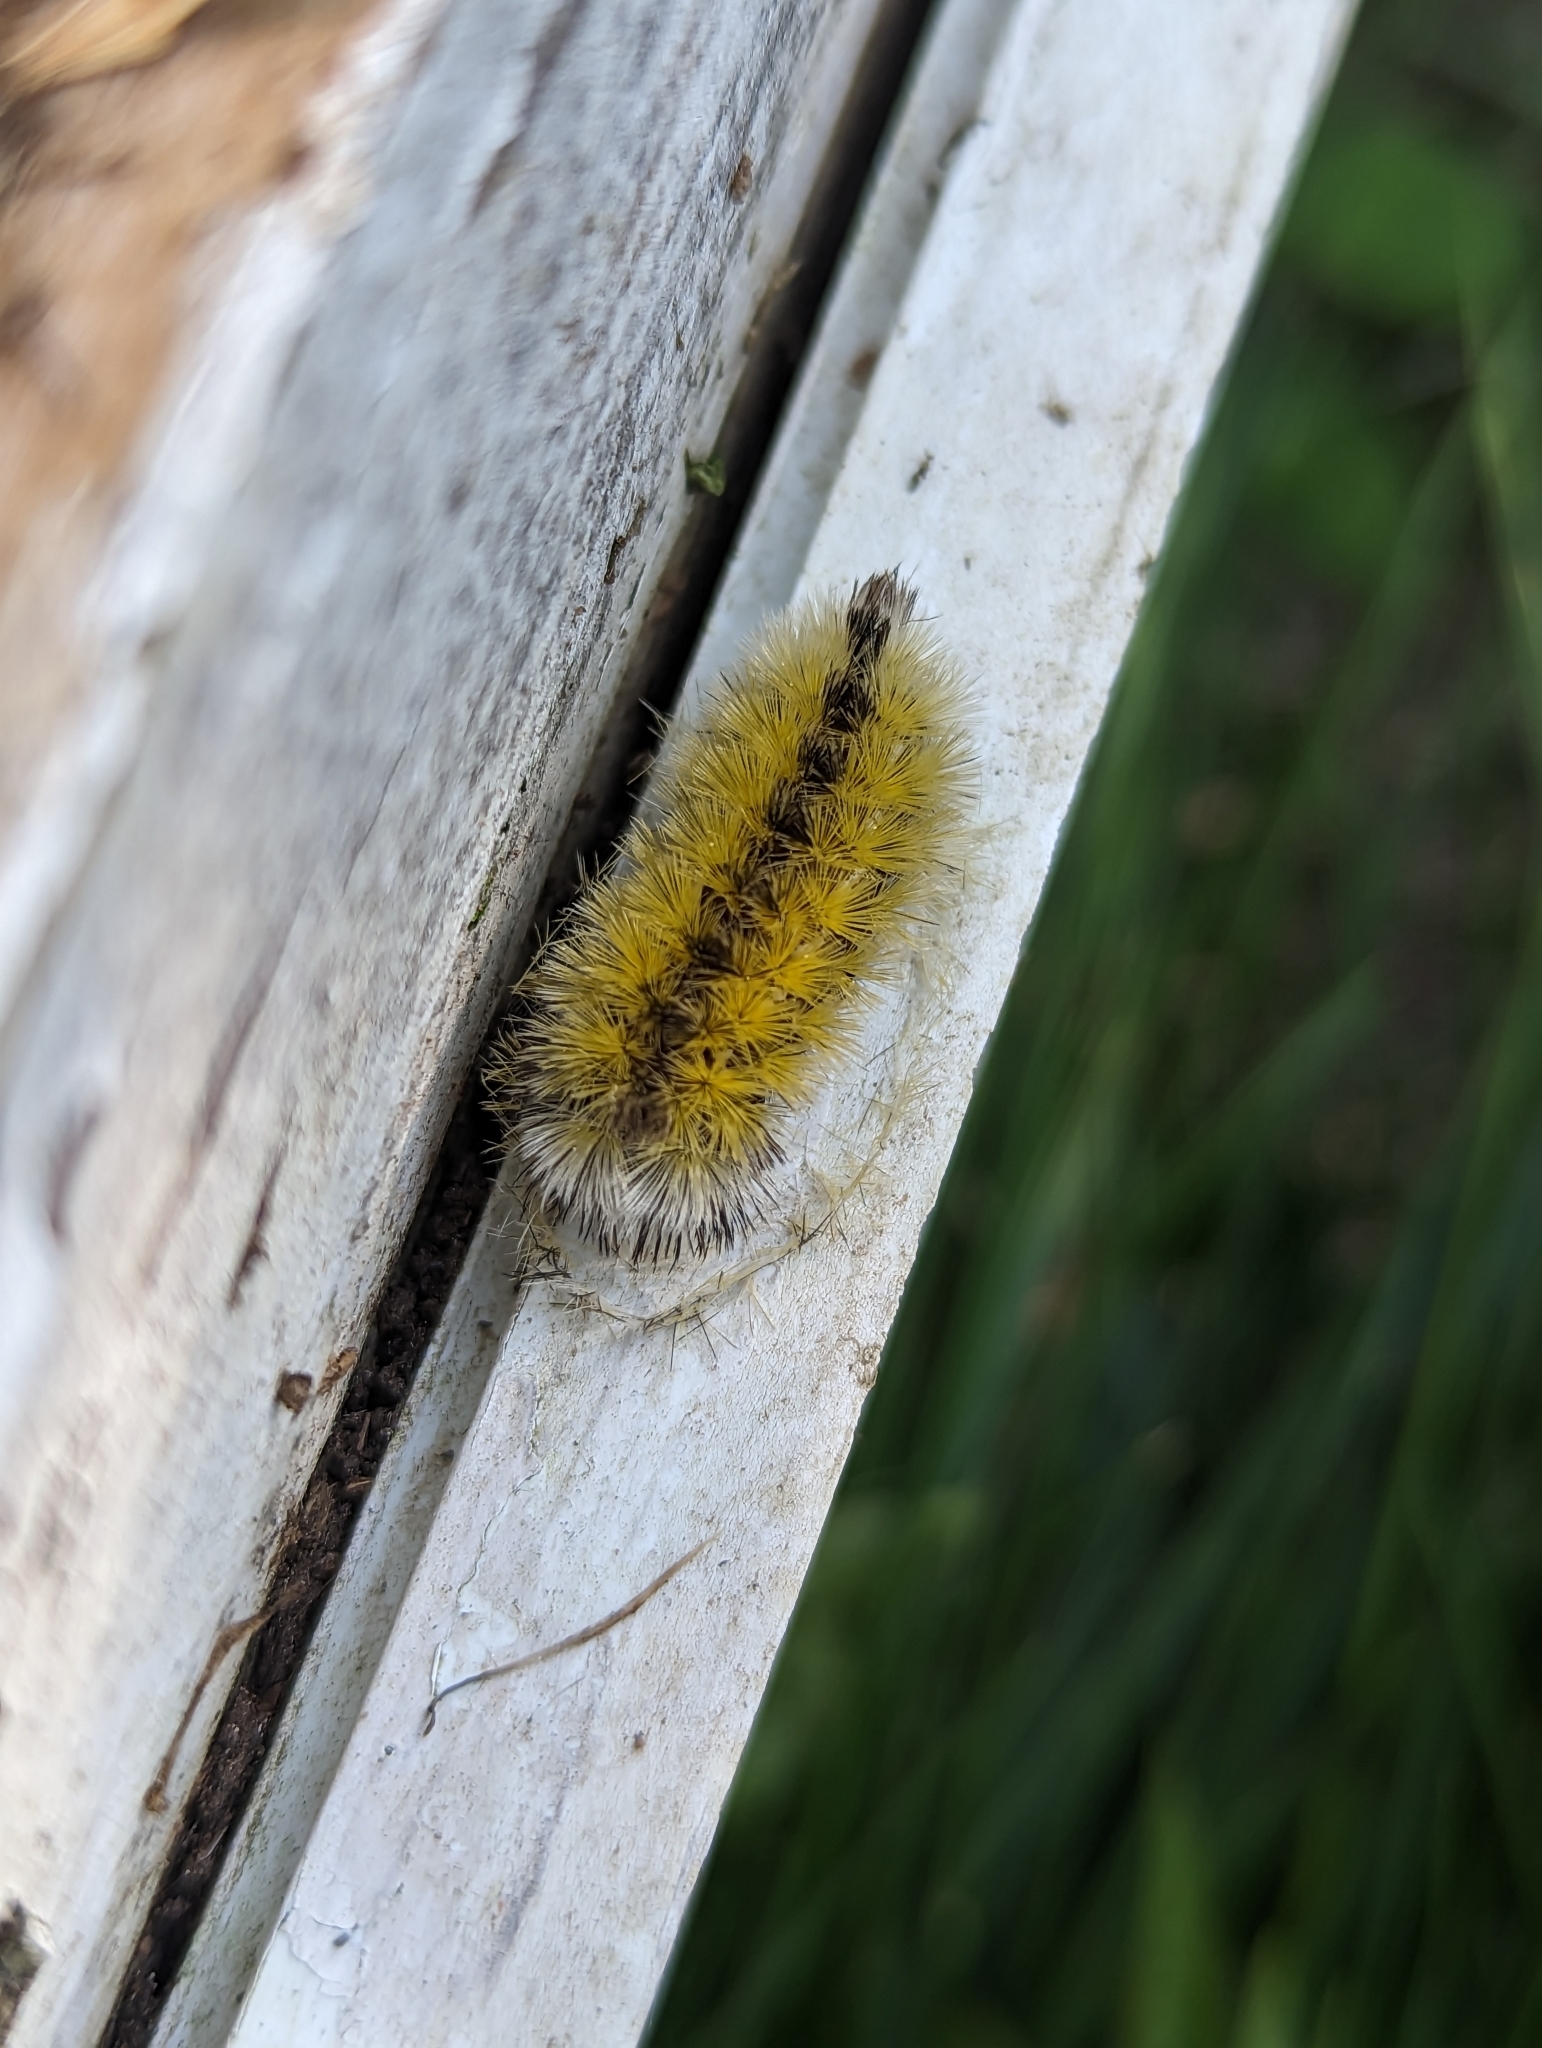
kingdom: Animalia
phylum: Arthropoda
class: Insecta
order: Lepidoptera
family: Erebidae
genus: Ctenucha
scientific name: Ctenucha virginica
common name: Virginia ctenucha moth
